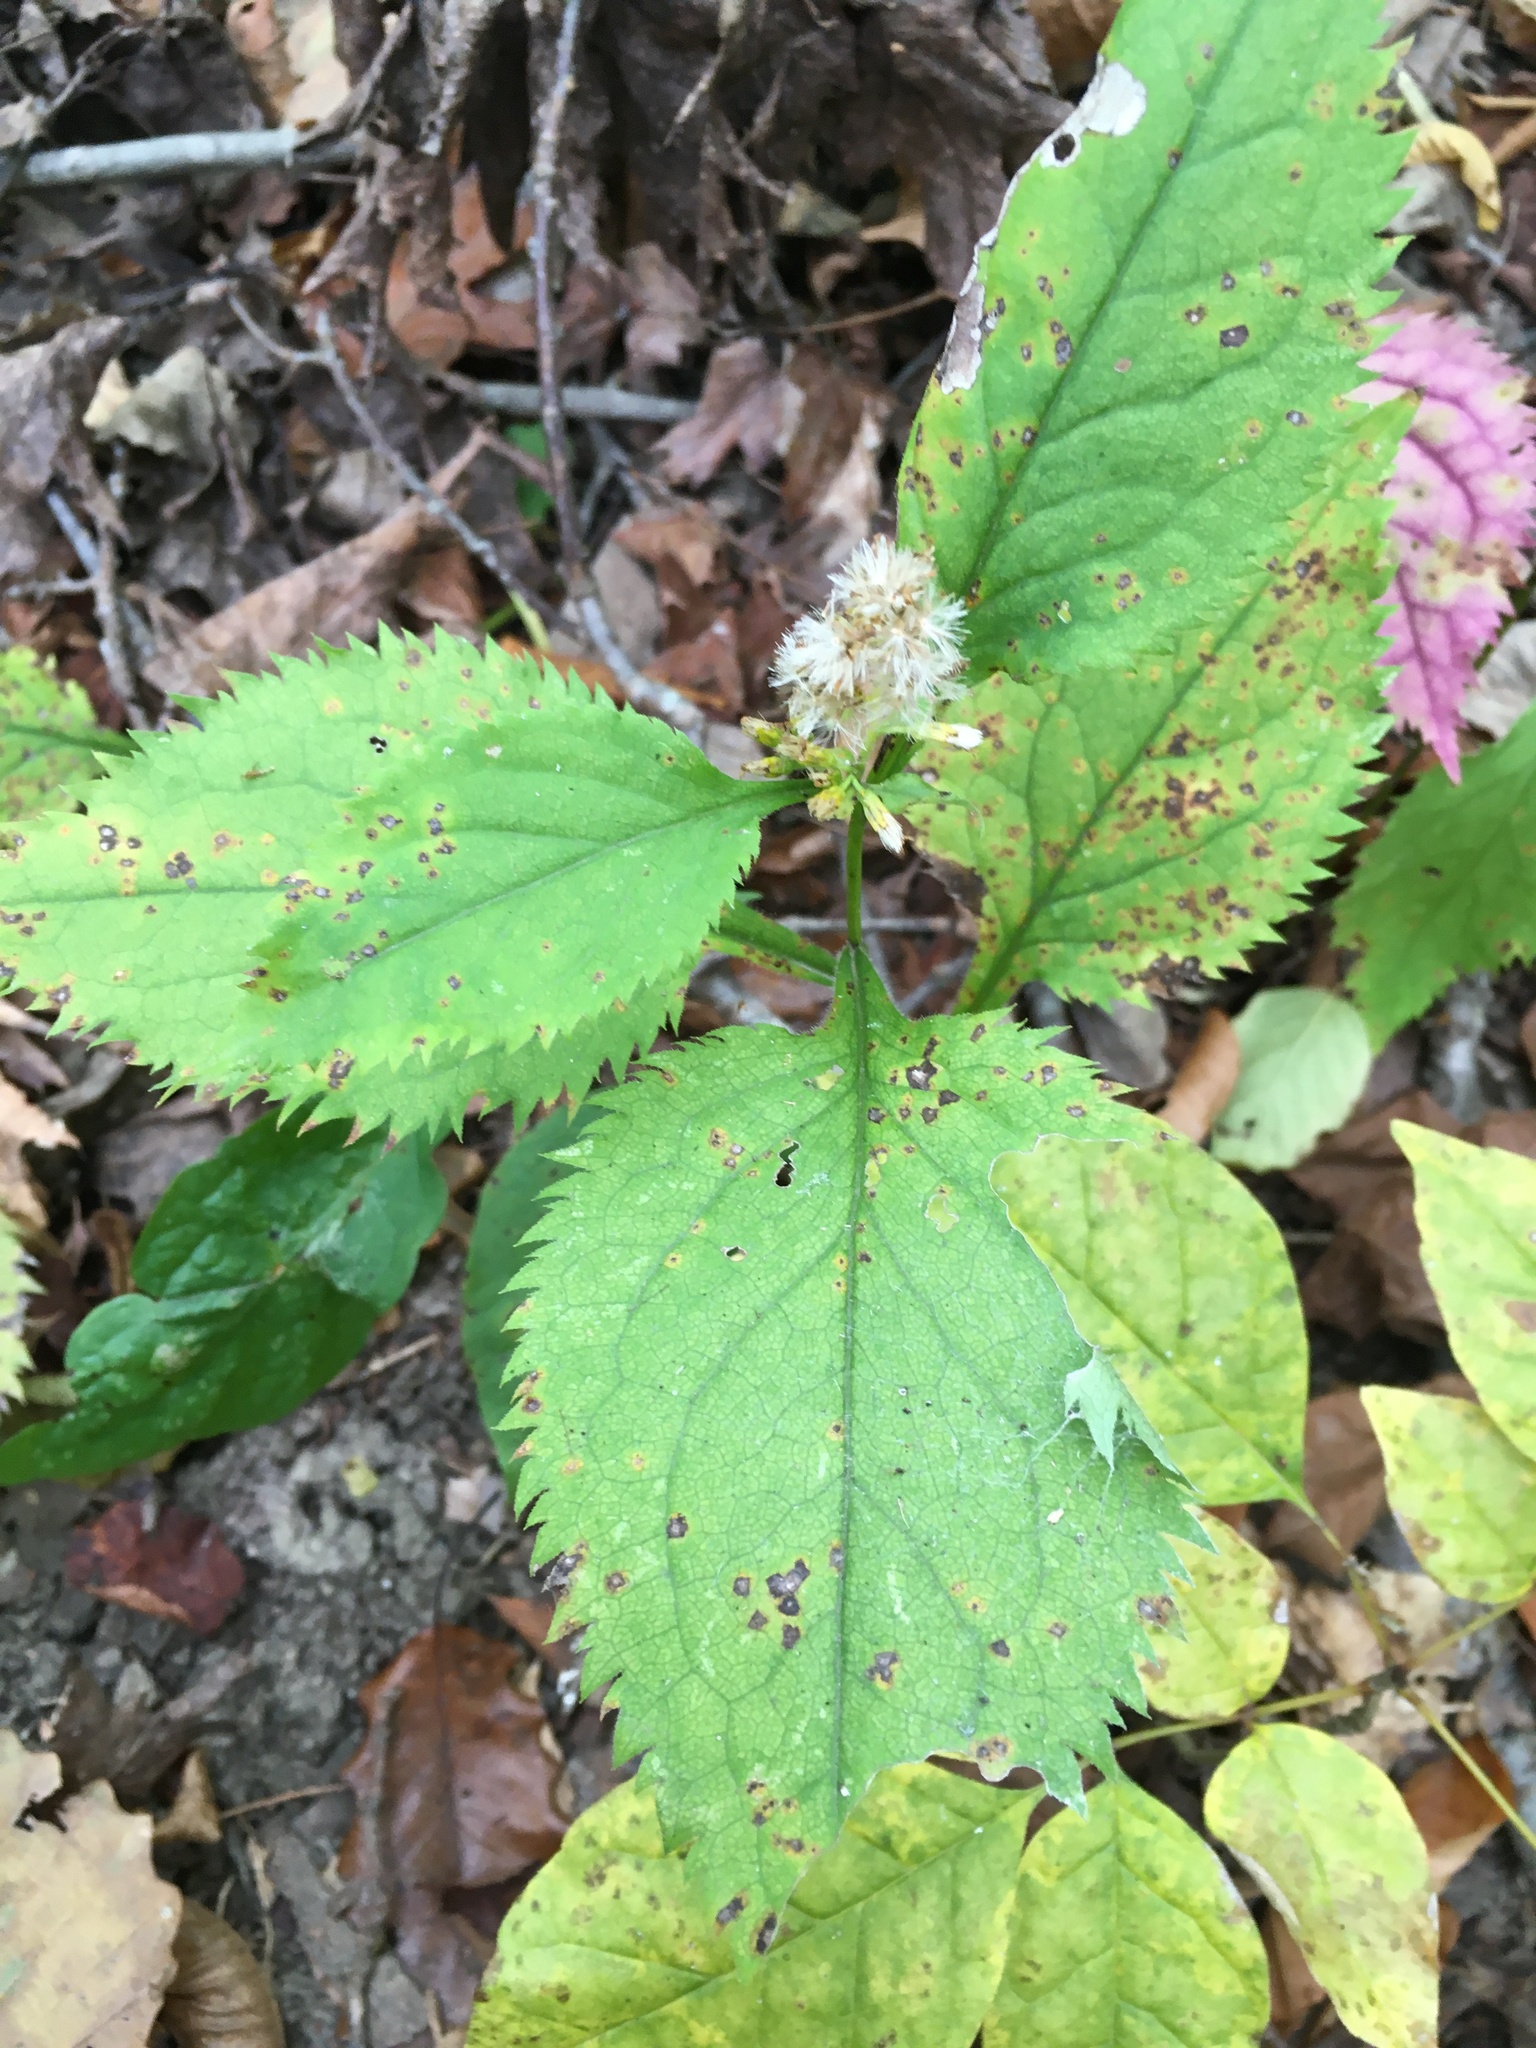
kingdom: Plantae
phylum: Tracheophyta
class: Magnoliopsida
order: Asterales
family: Asteraceae
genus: Solidago
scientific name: Solidago flexicaulis
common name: Zig-zag goldenrod
